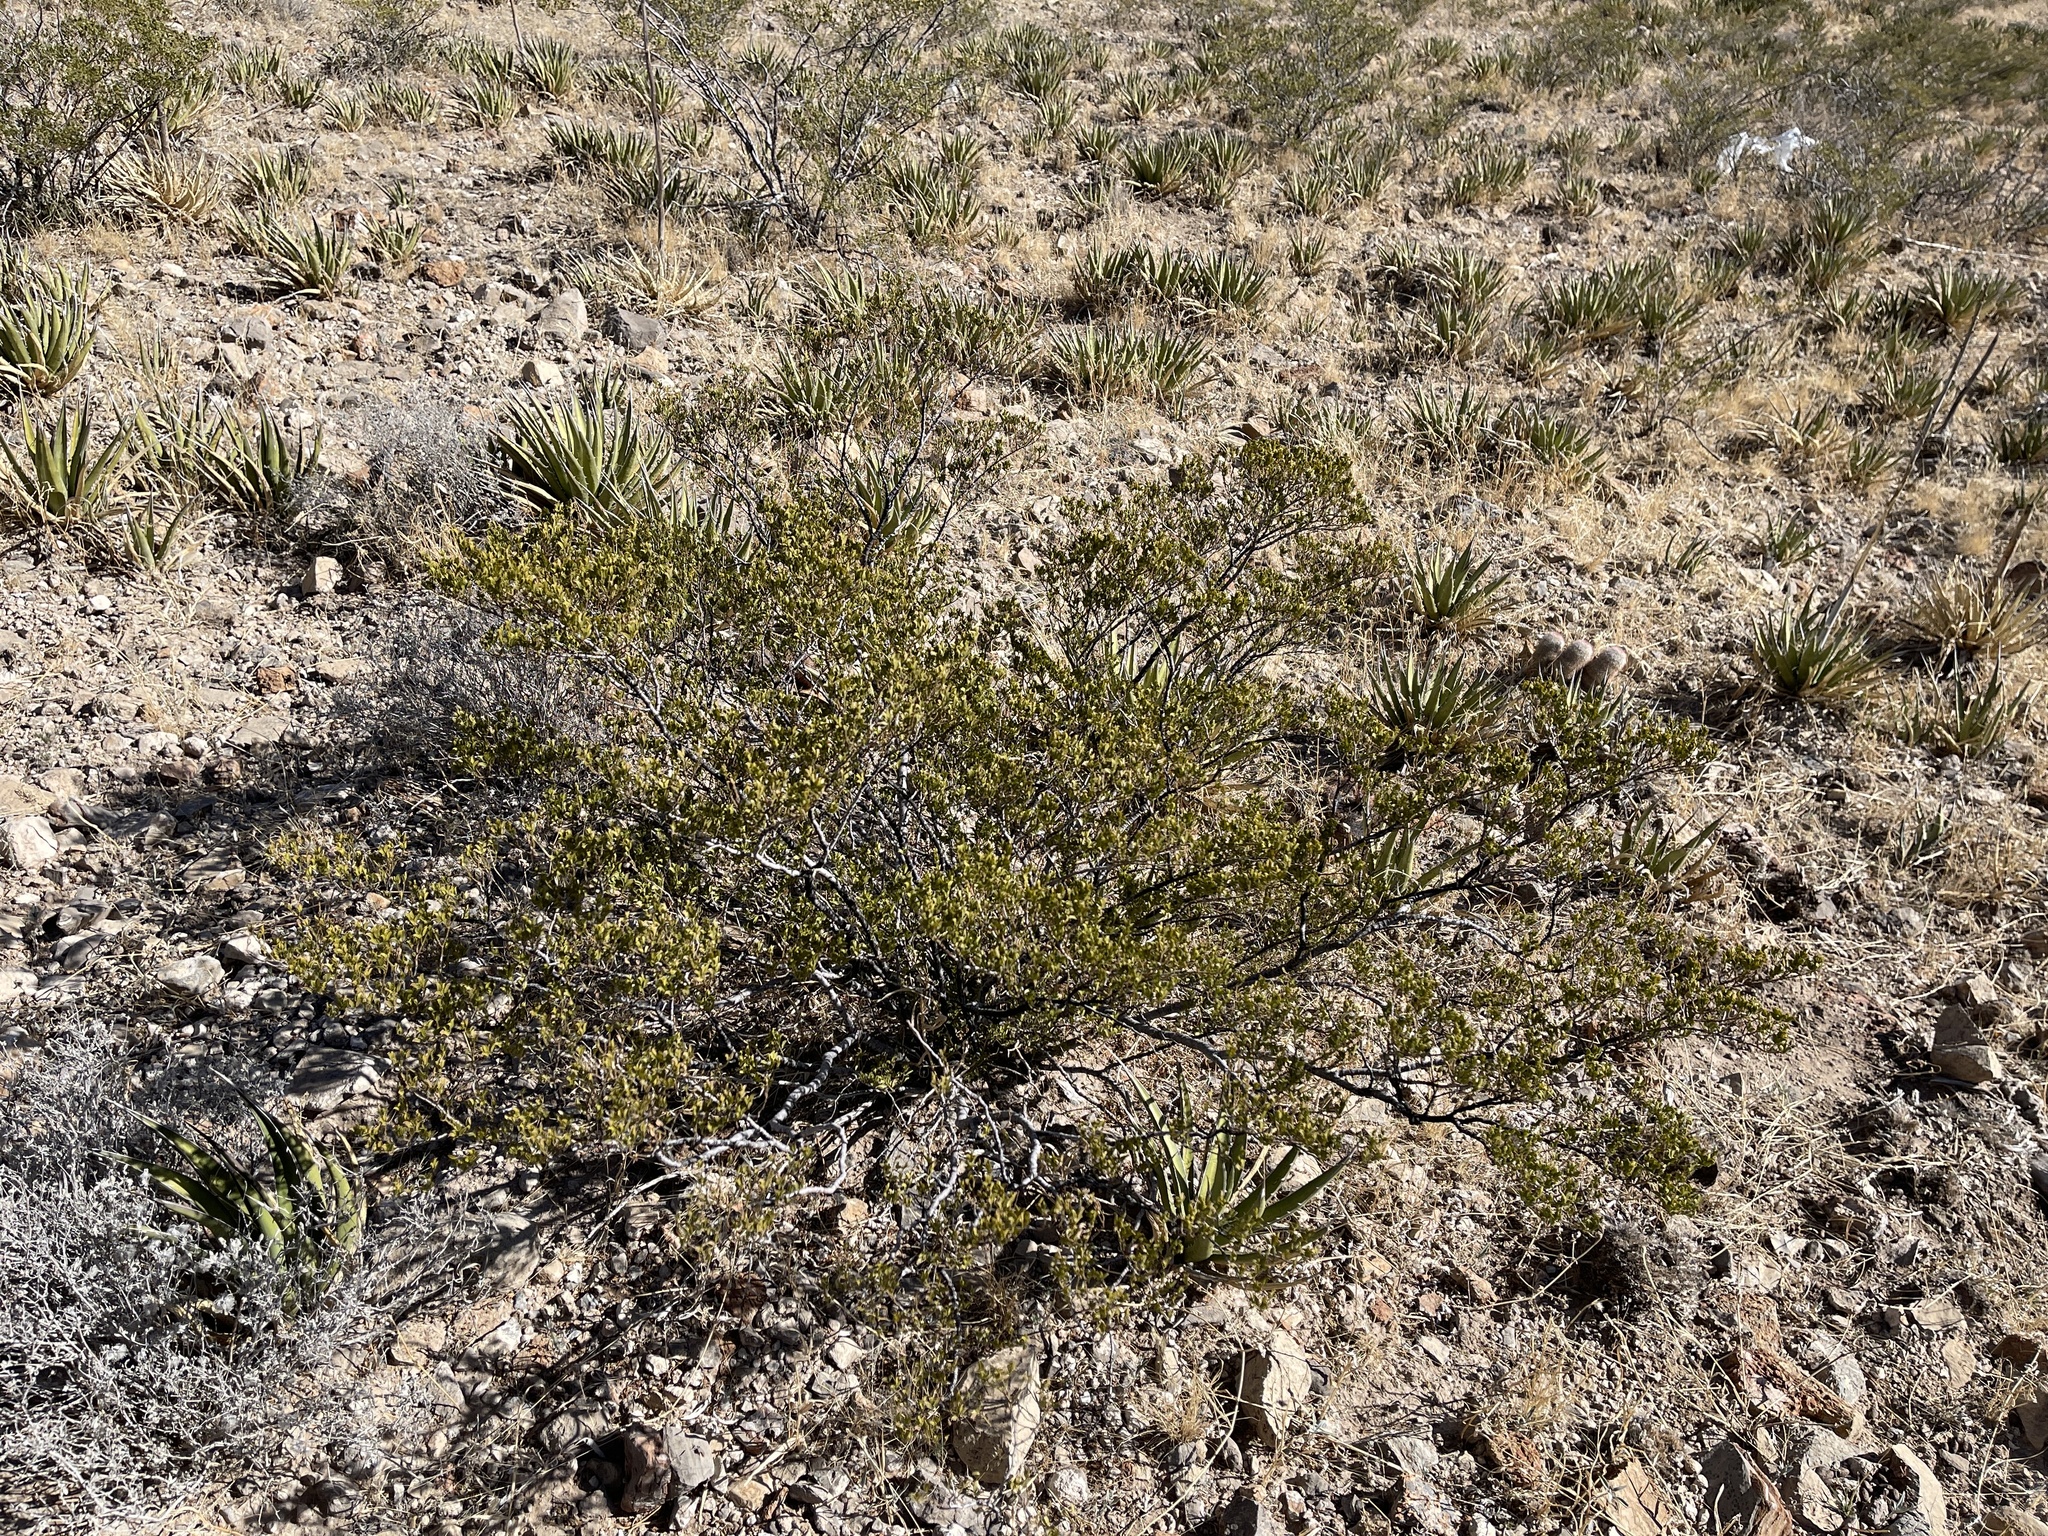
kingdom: Plantae
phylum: Tracheophyta
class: Magnoliopsida
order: Zygophyllales
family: Zygophyllaceae
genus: Larrea
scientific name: Larrea tridentata
